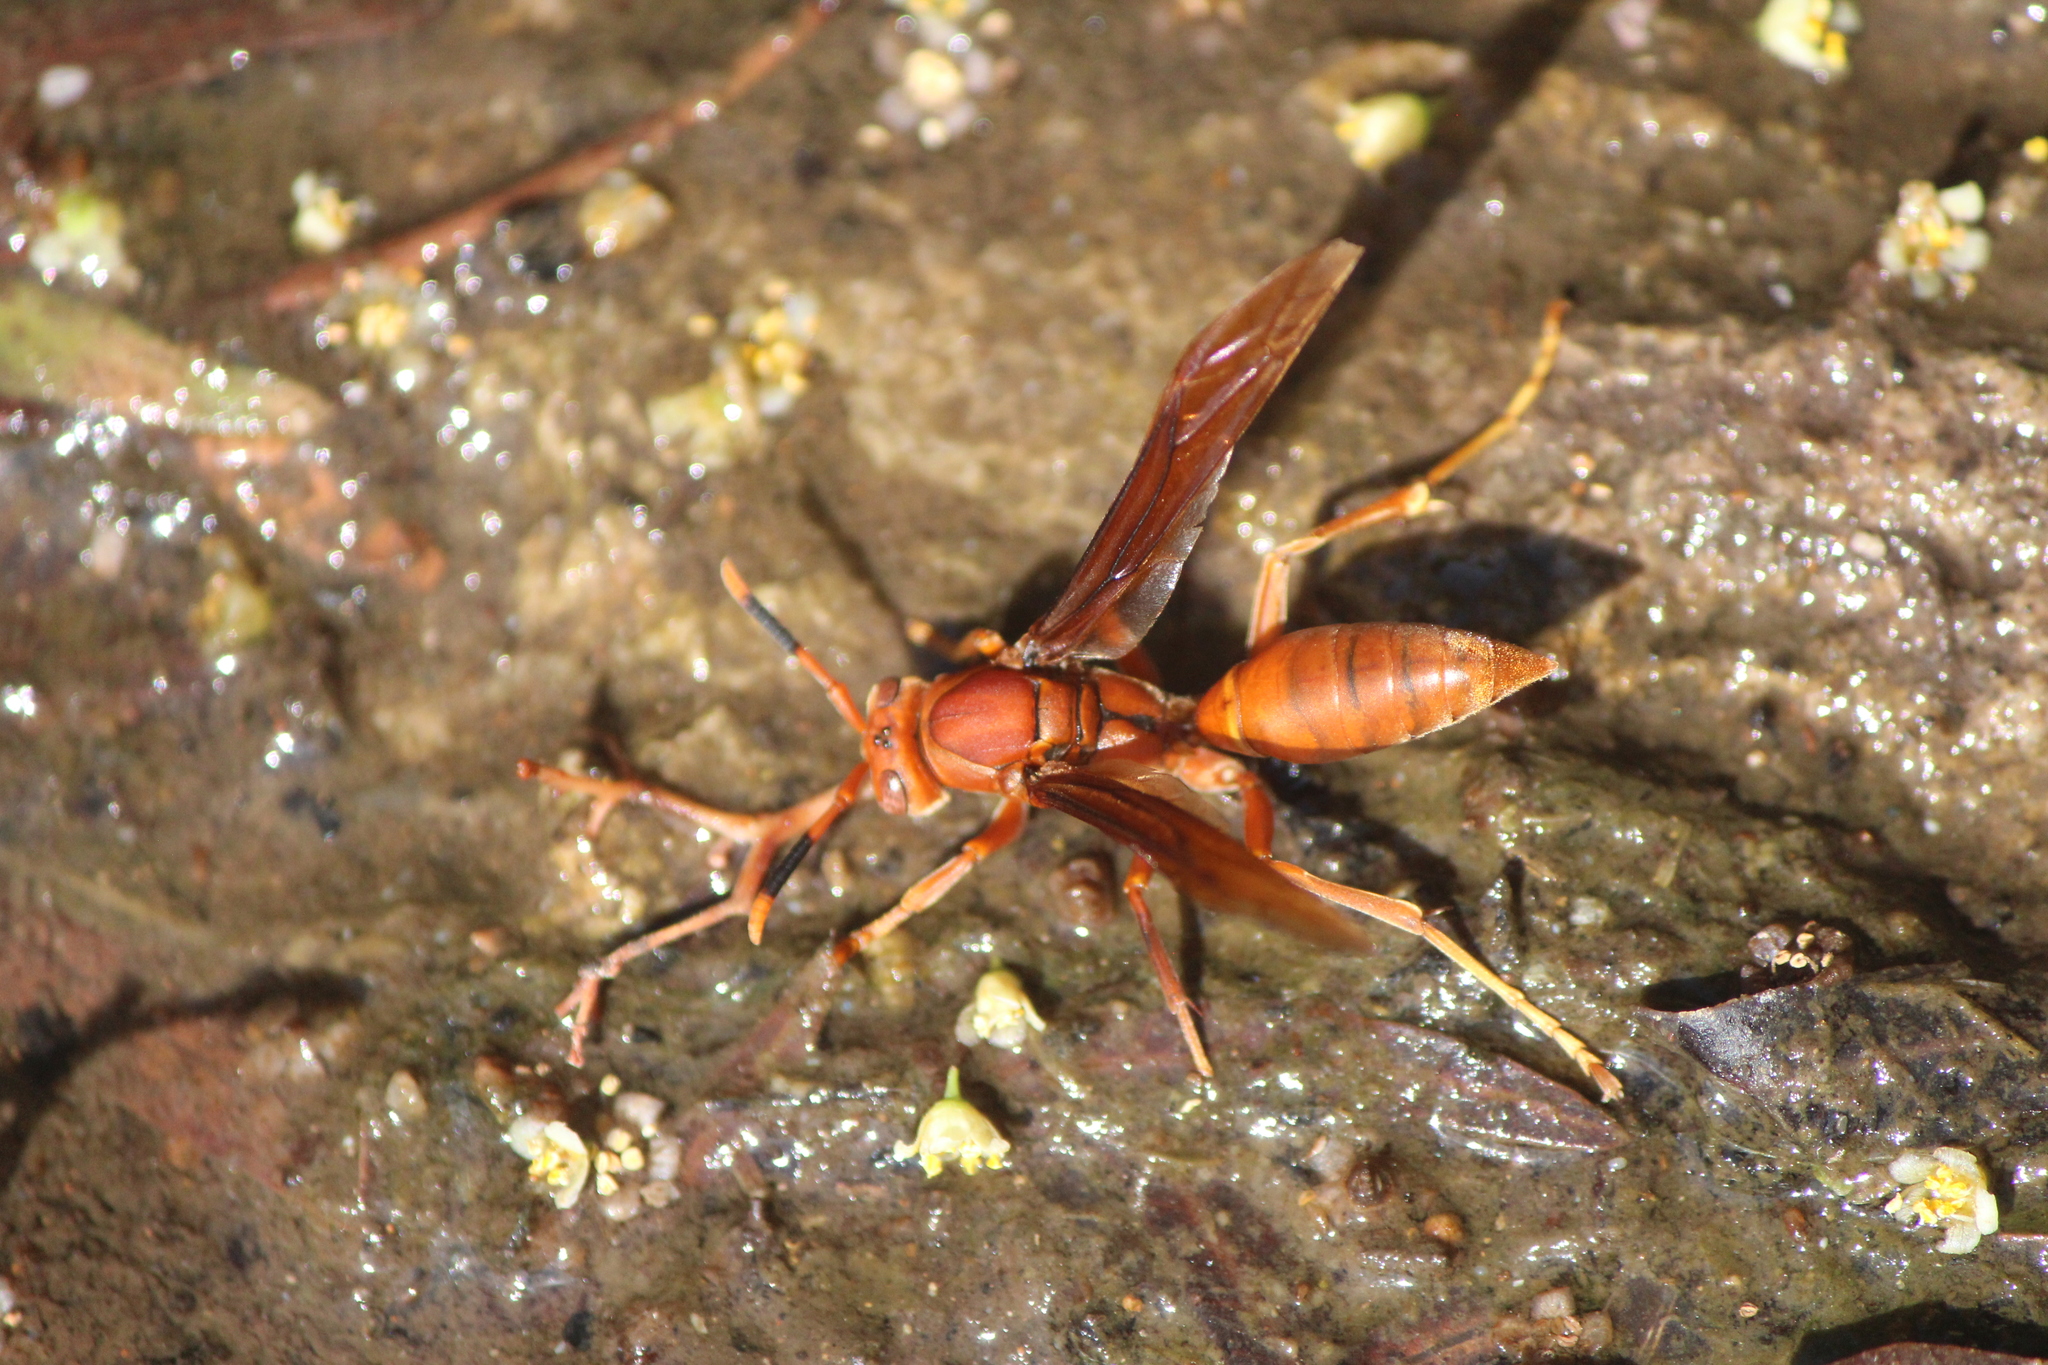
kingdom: Animalia
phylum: Arthropoda
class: Insecta
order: Hymenoptera
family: Eumenidae
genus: Polistes
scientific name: Polistes canadensis
